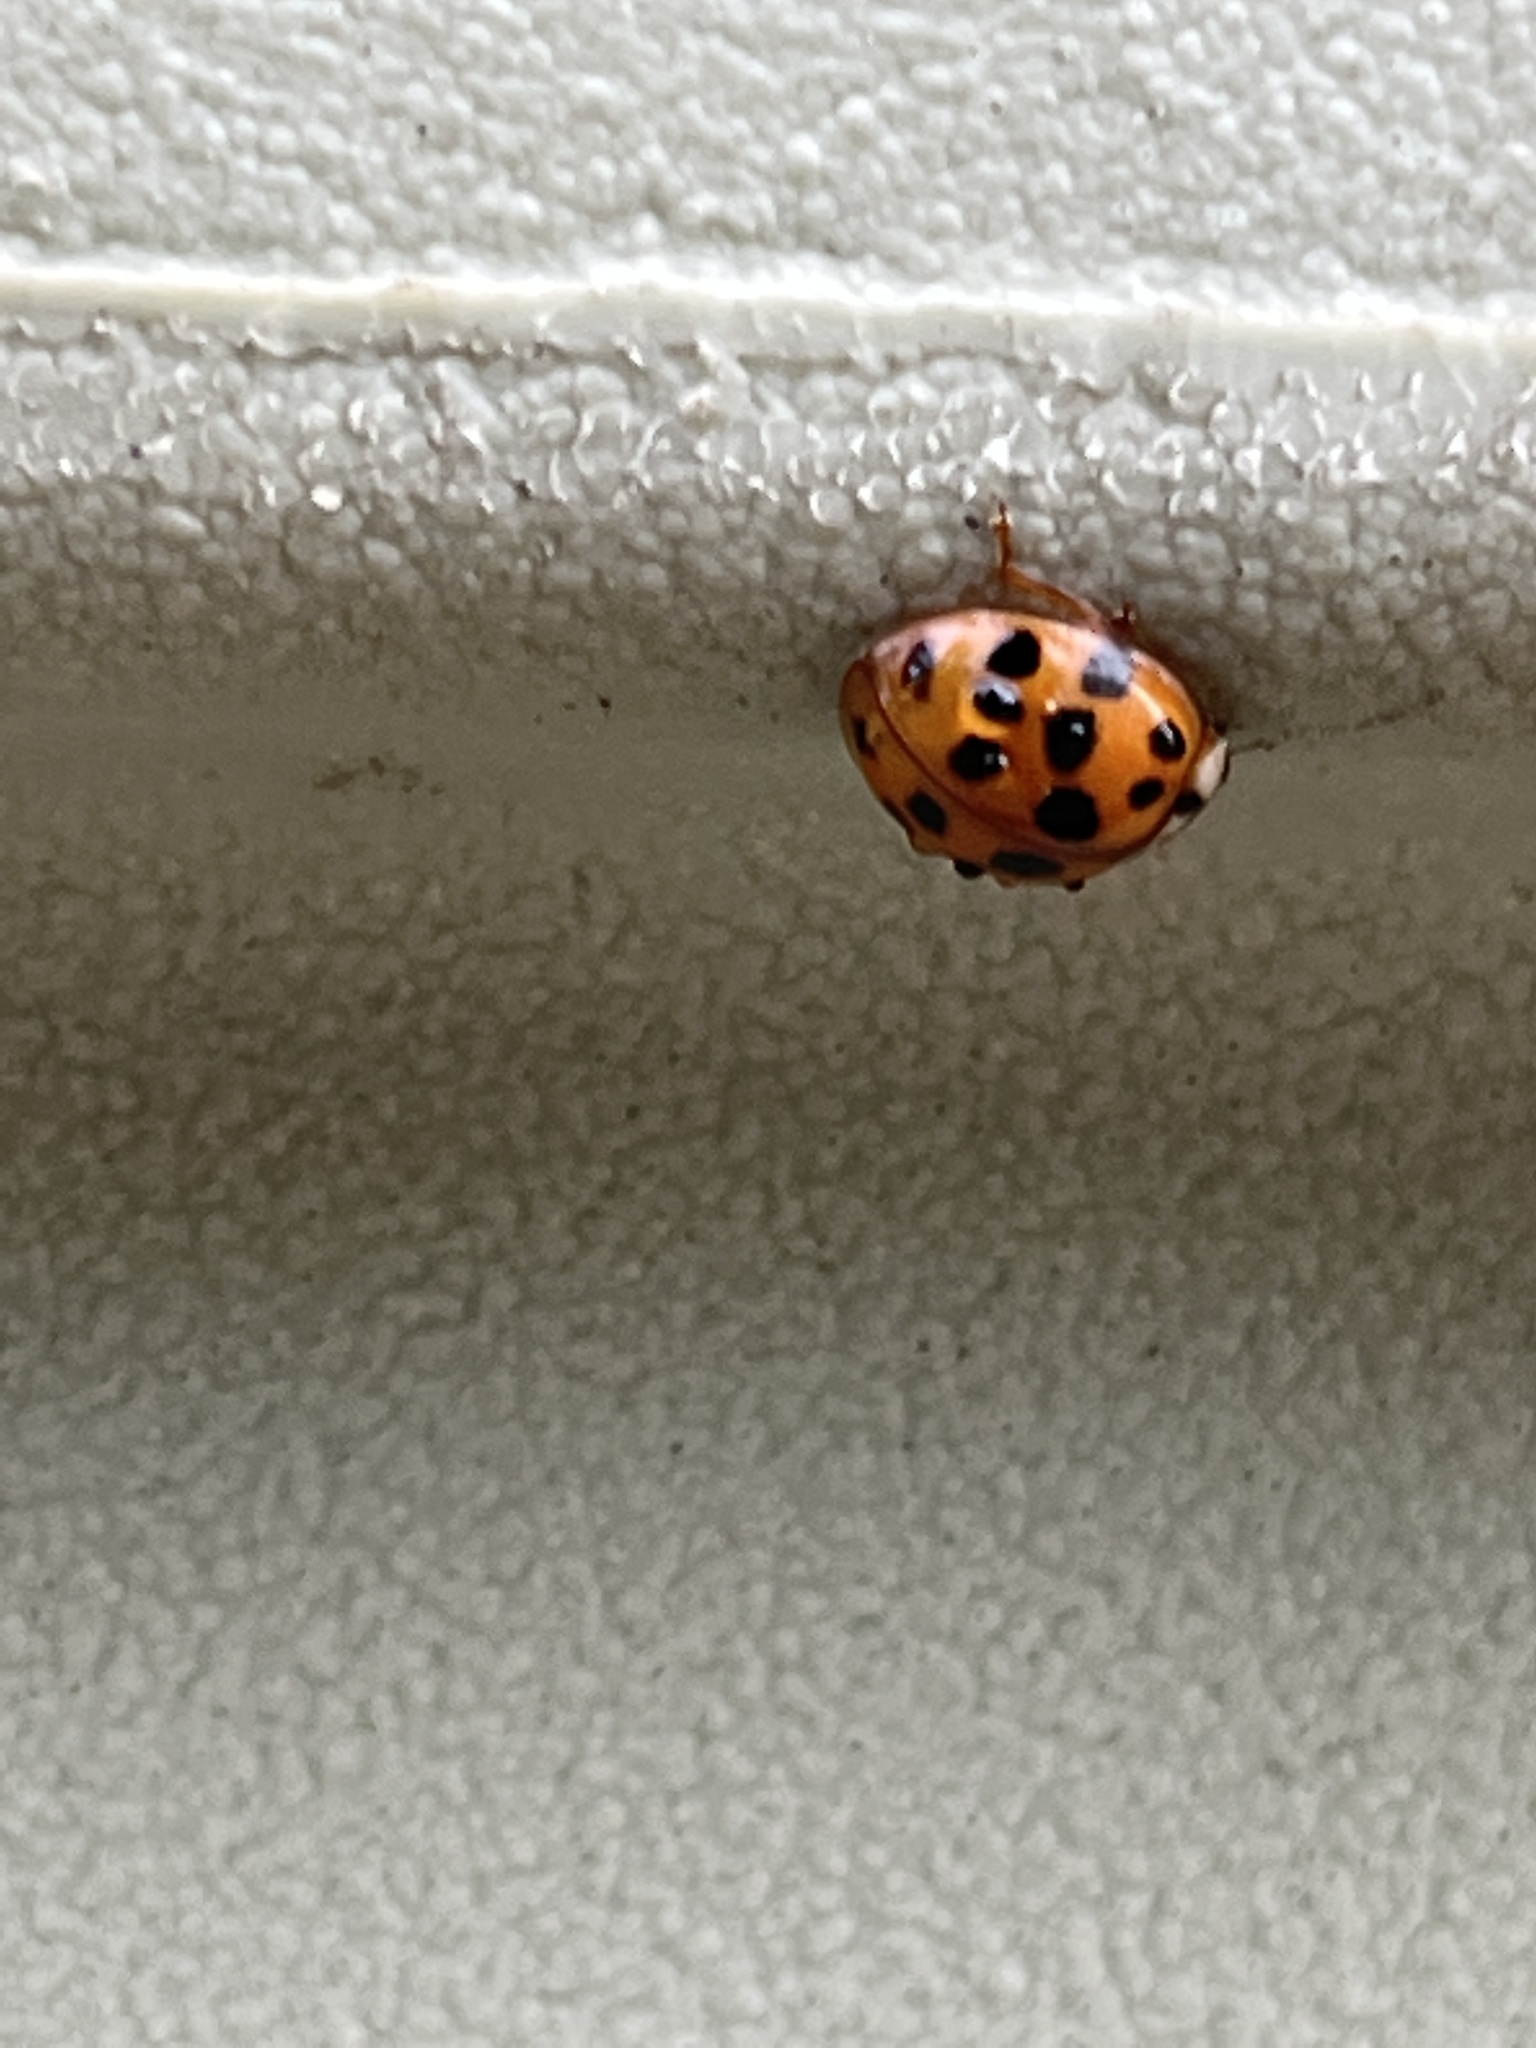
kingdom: Animalia
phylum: Arthropoda
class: Insecta
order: Coleoptera
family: Coccinellidae
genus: Harmonia
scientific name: Harmonia axyridis
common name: Harlequin ladybird
